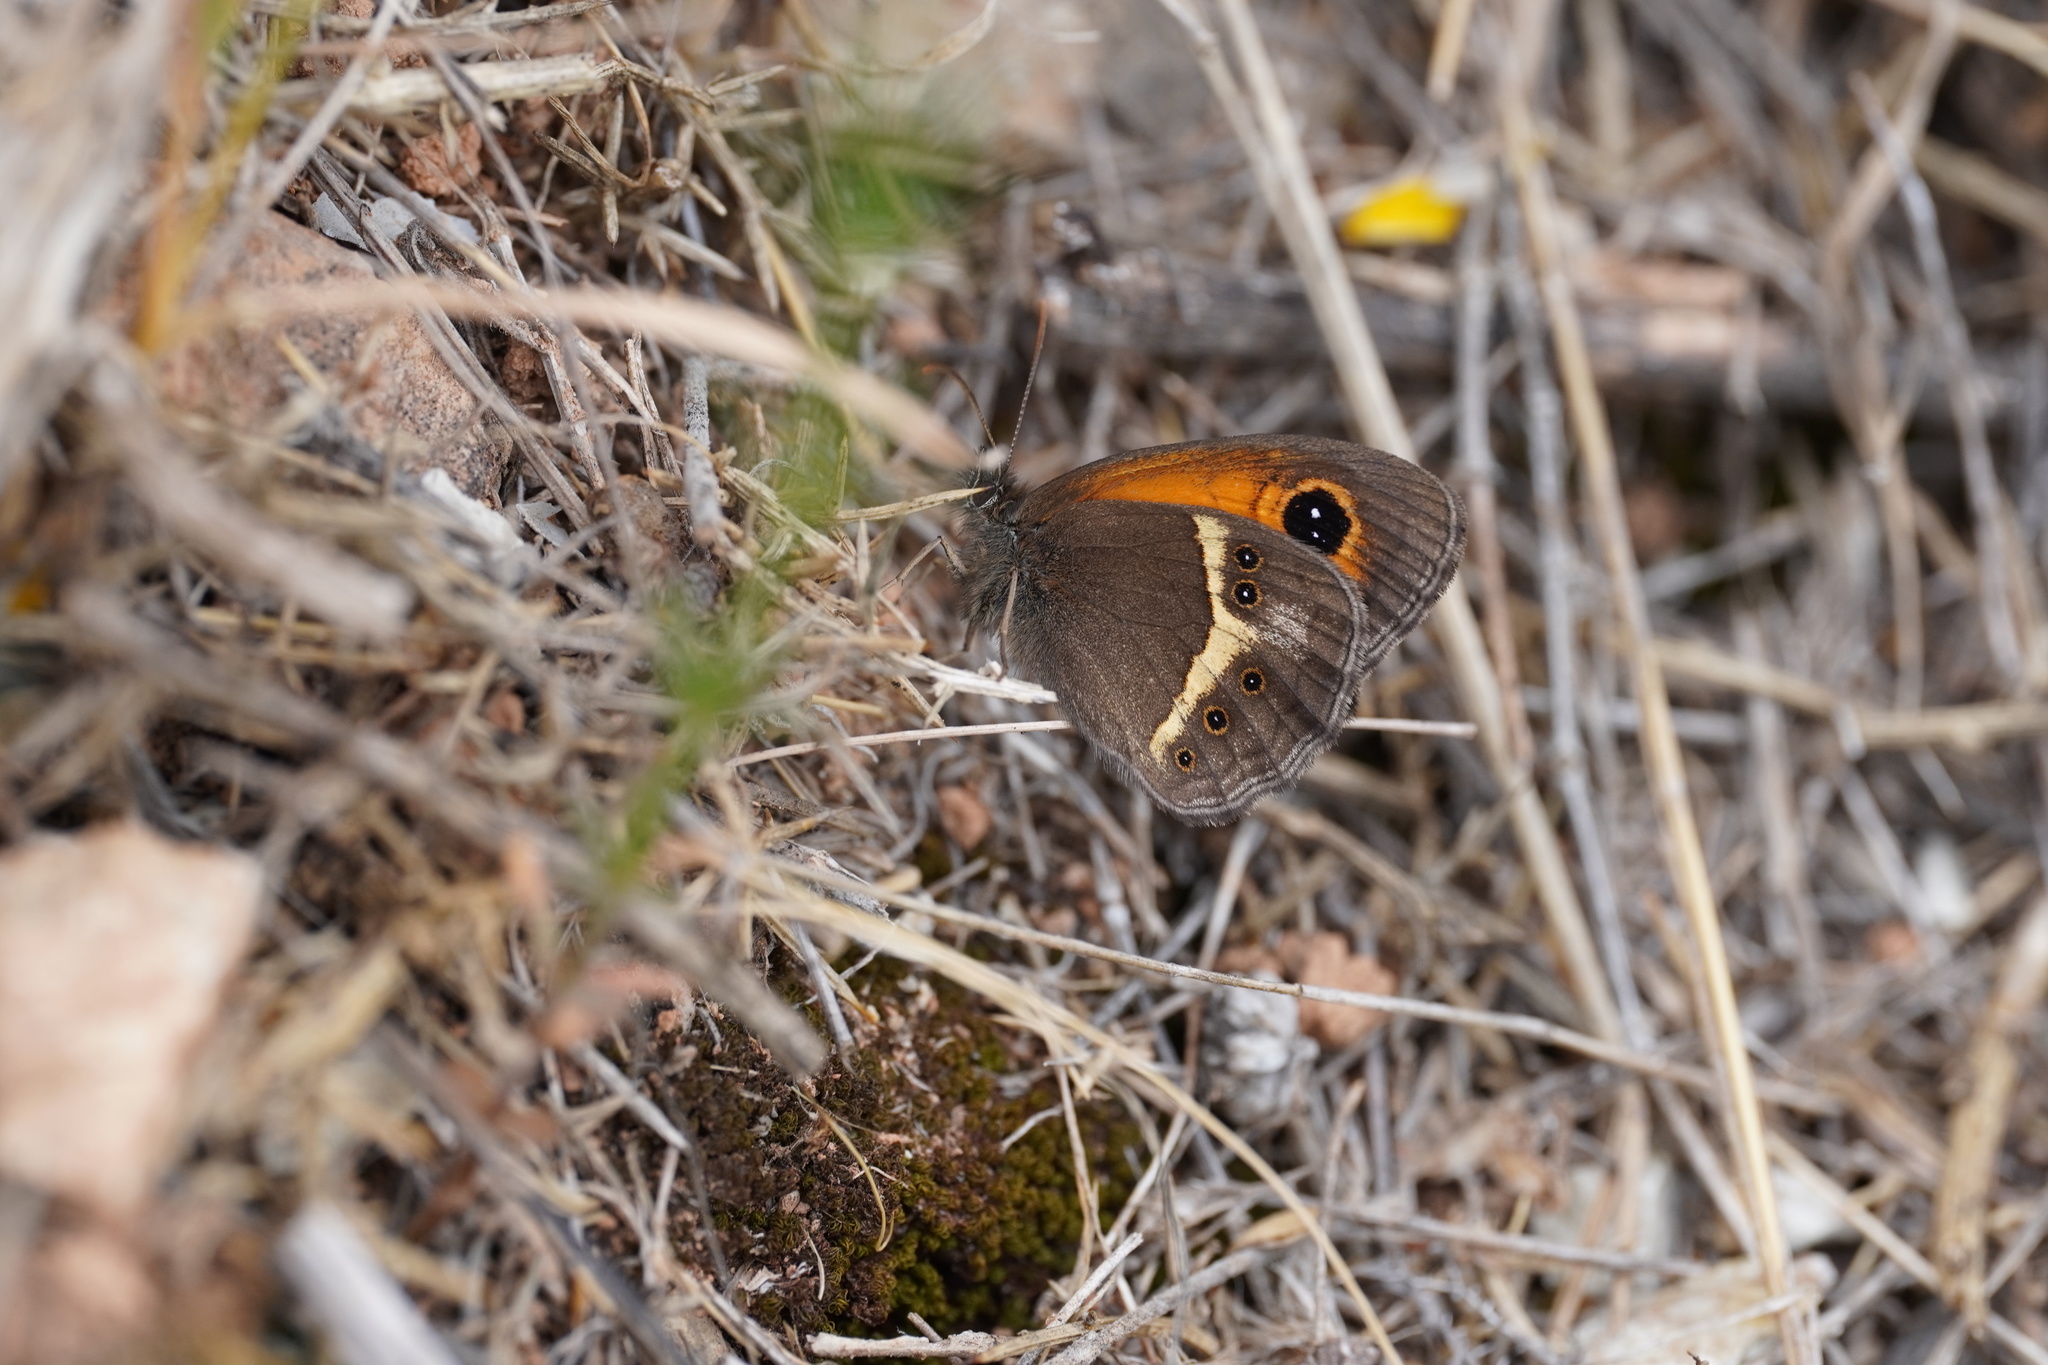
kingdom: Animalia
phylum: Arthropoda
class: Insecta
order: Lepidoptera
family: Nymphalidae
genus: Pyronia
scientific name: Pyronia bathseba
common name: Spanish gatekeeper
